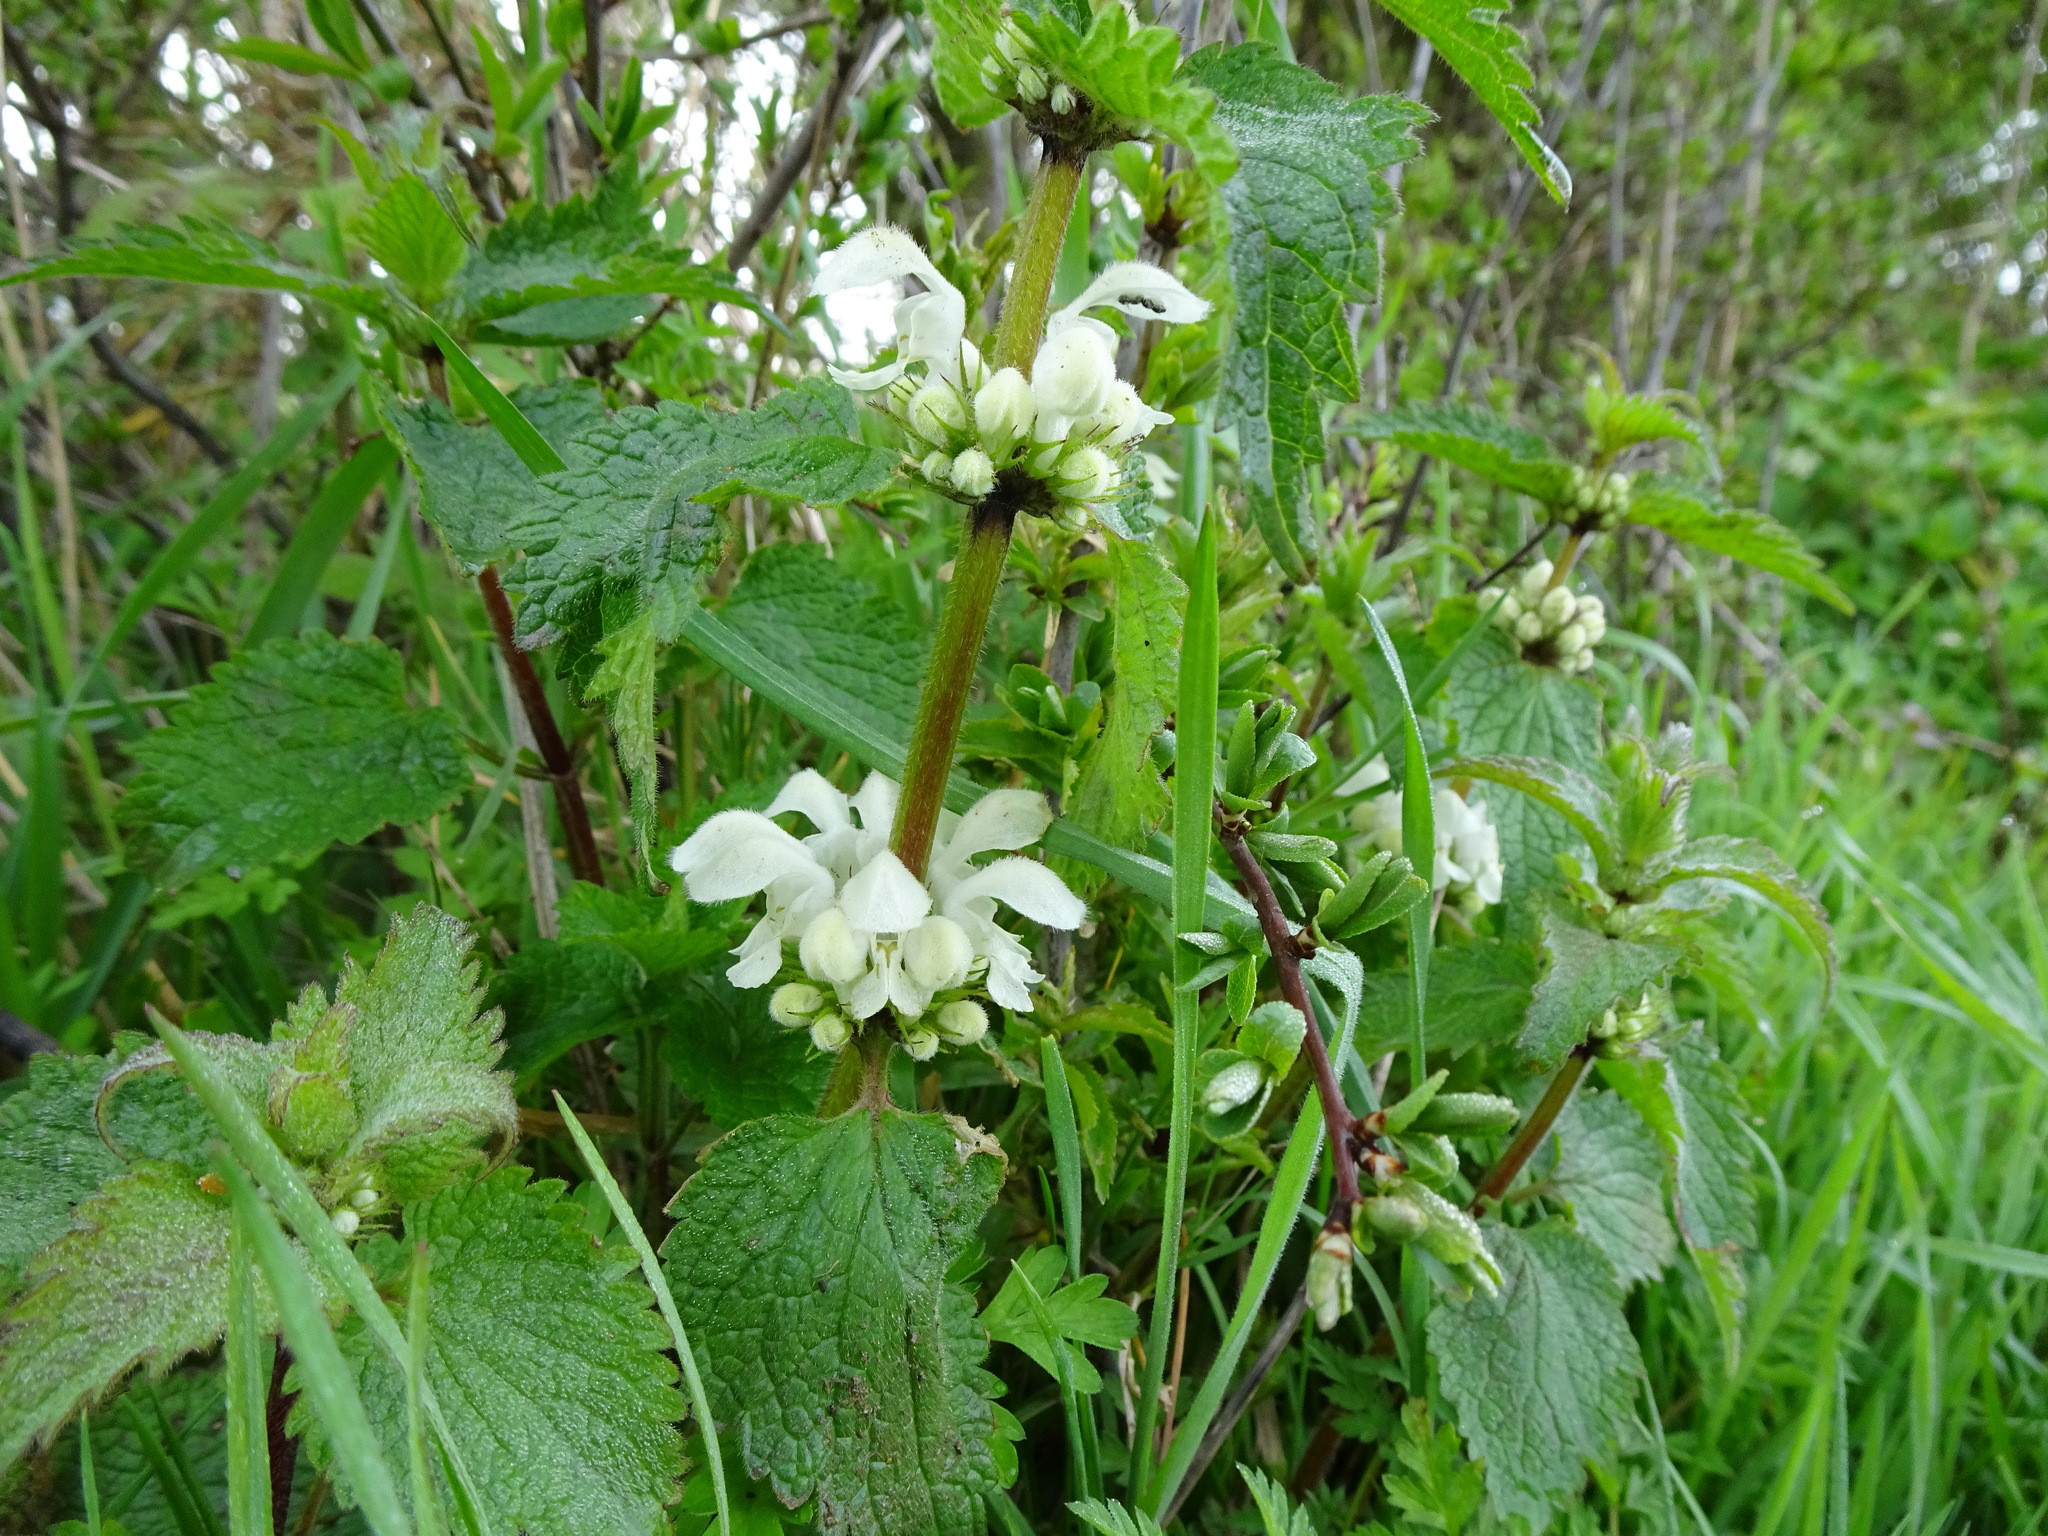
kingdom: Plantae
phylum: Tracheophyta
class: Magnoliopsida
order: Lamiales
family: Lamiaceae
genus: Lamium
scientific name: Lamium album
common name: White dead-nettle
